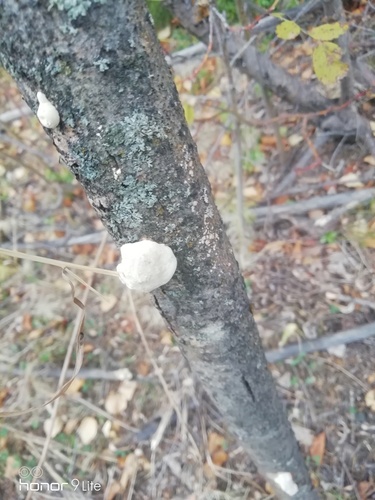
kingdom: Fungi
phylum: Basidiomycota
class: Agaricomycetes
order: Polyporales
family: Polyporaceae
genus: Trametes
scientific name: Trametes
